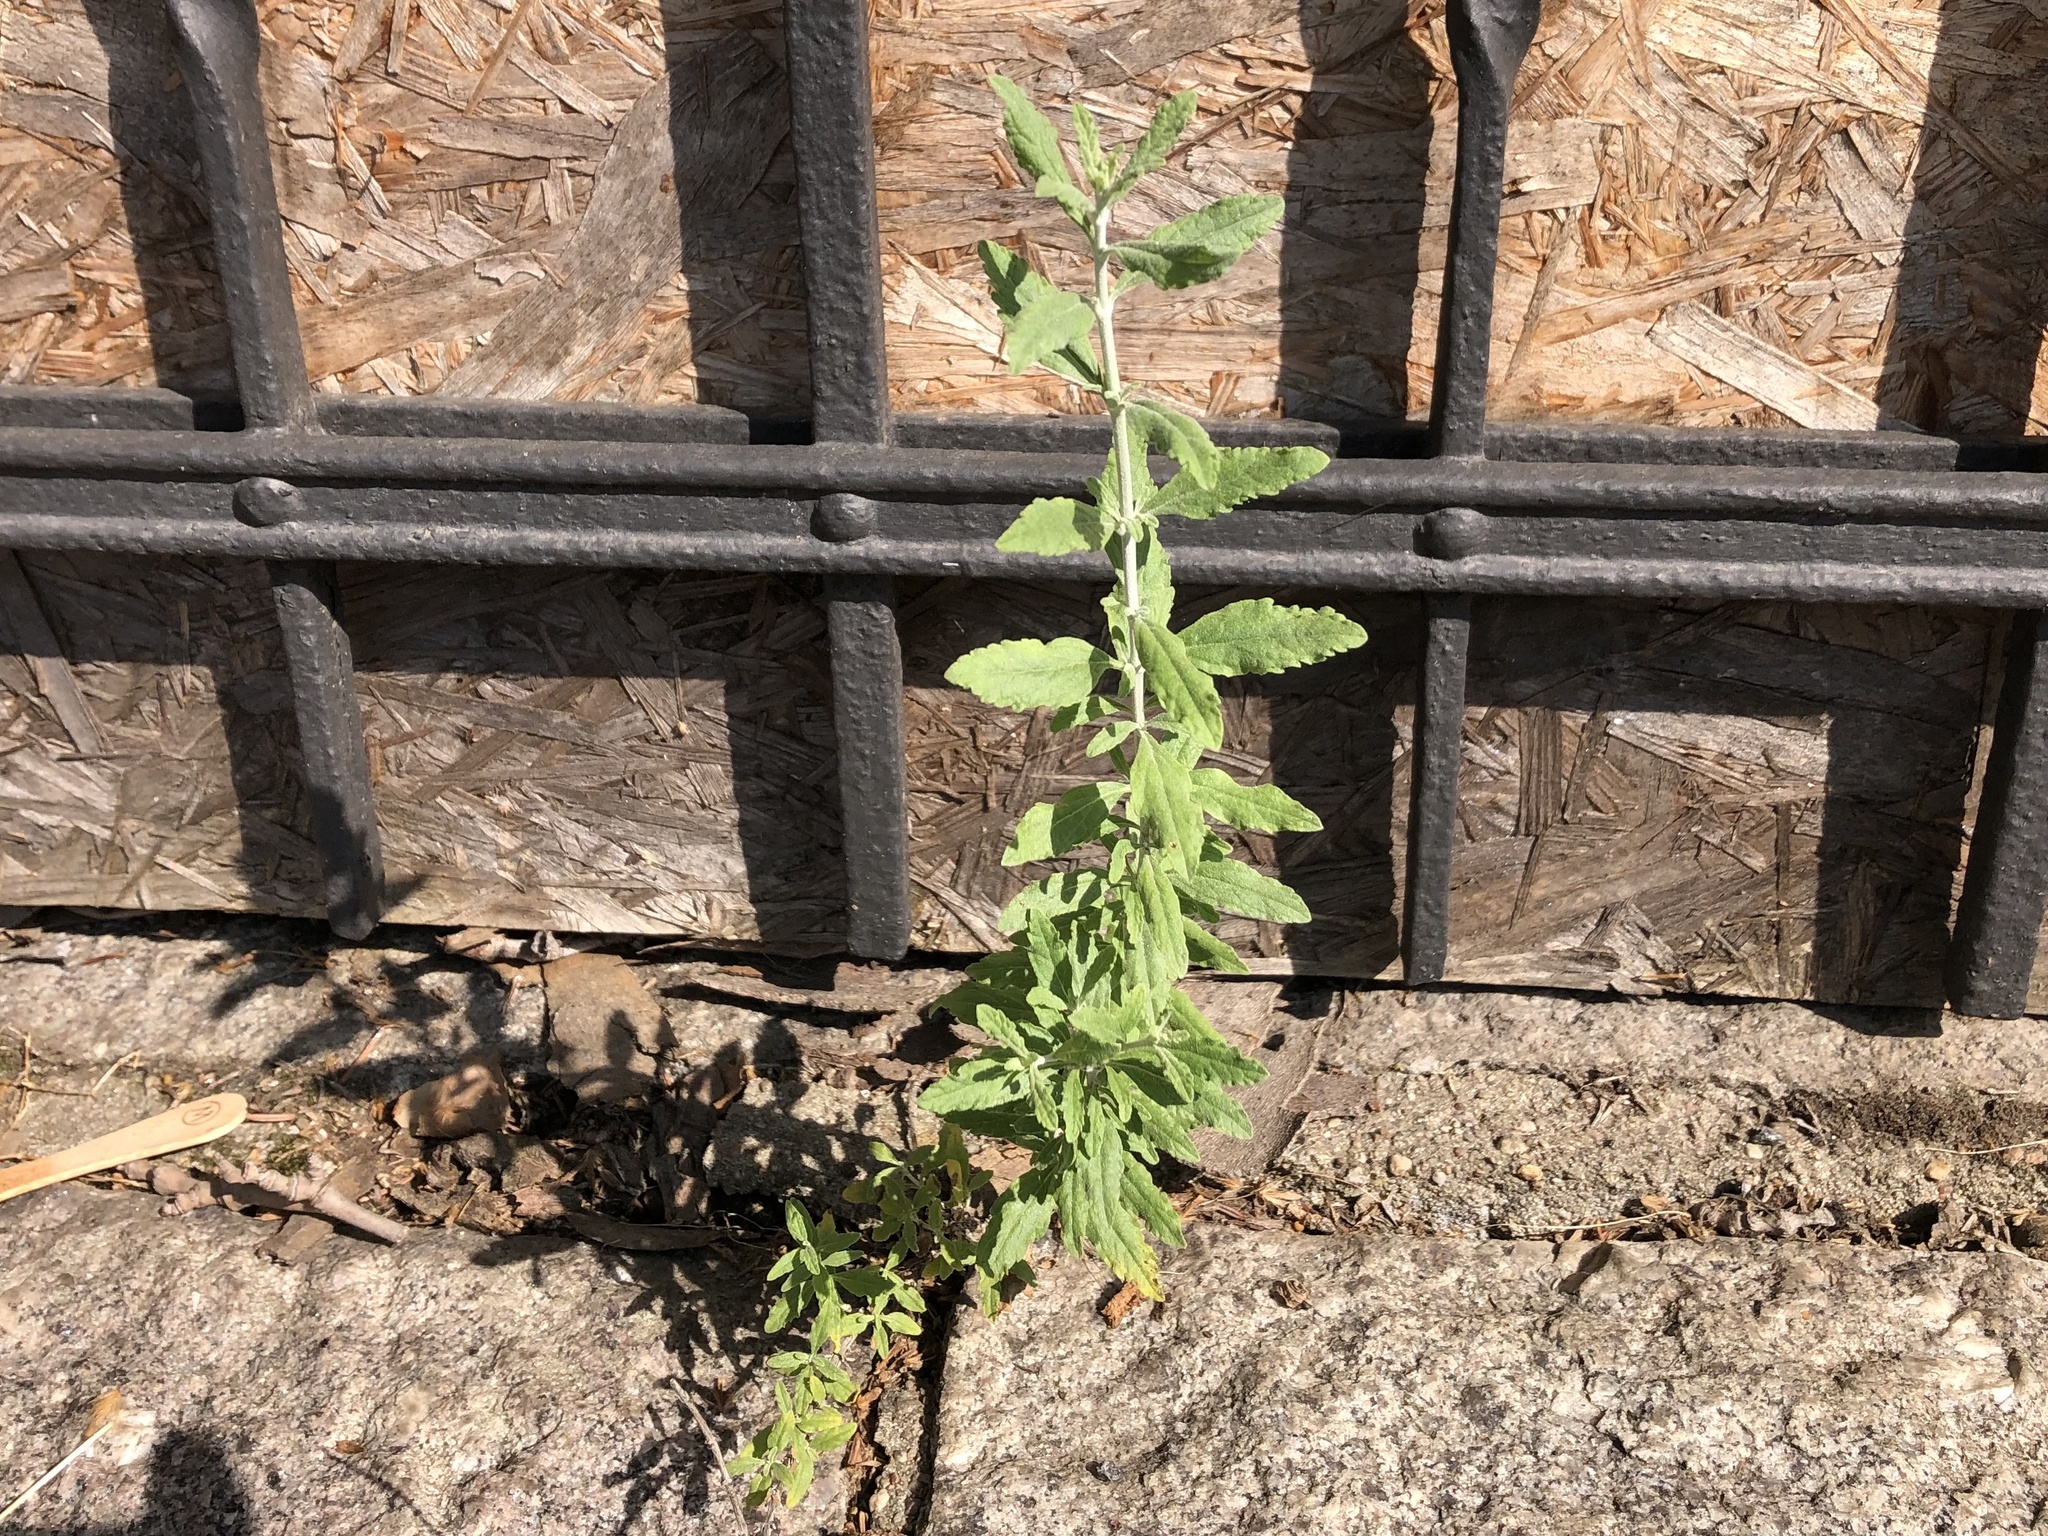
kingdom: Plantae
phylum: Tracheophyta
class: Magnoliopsida
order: Lamiales
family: Lamiaceae
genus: Salvia
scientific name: Salvia yangii
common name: Russian sage
